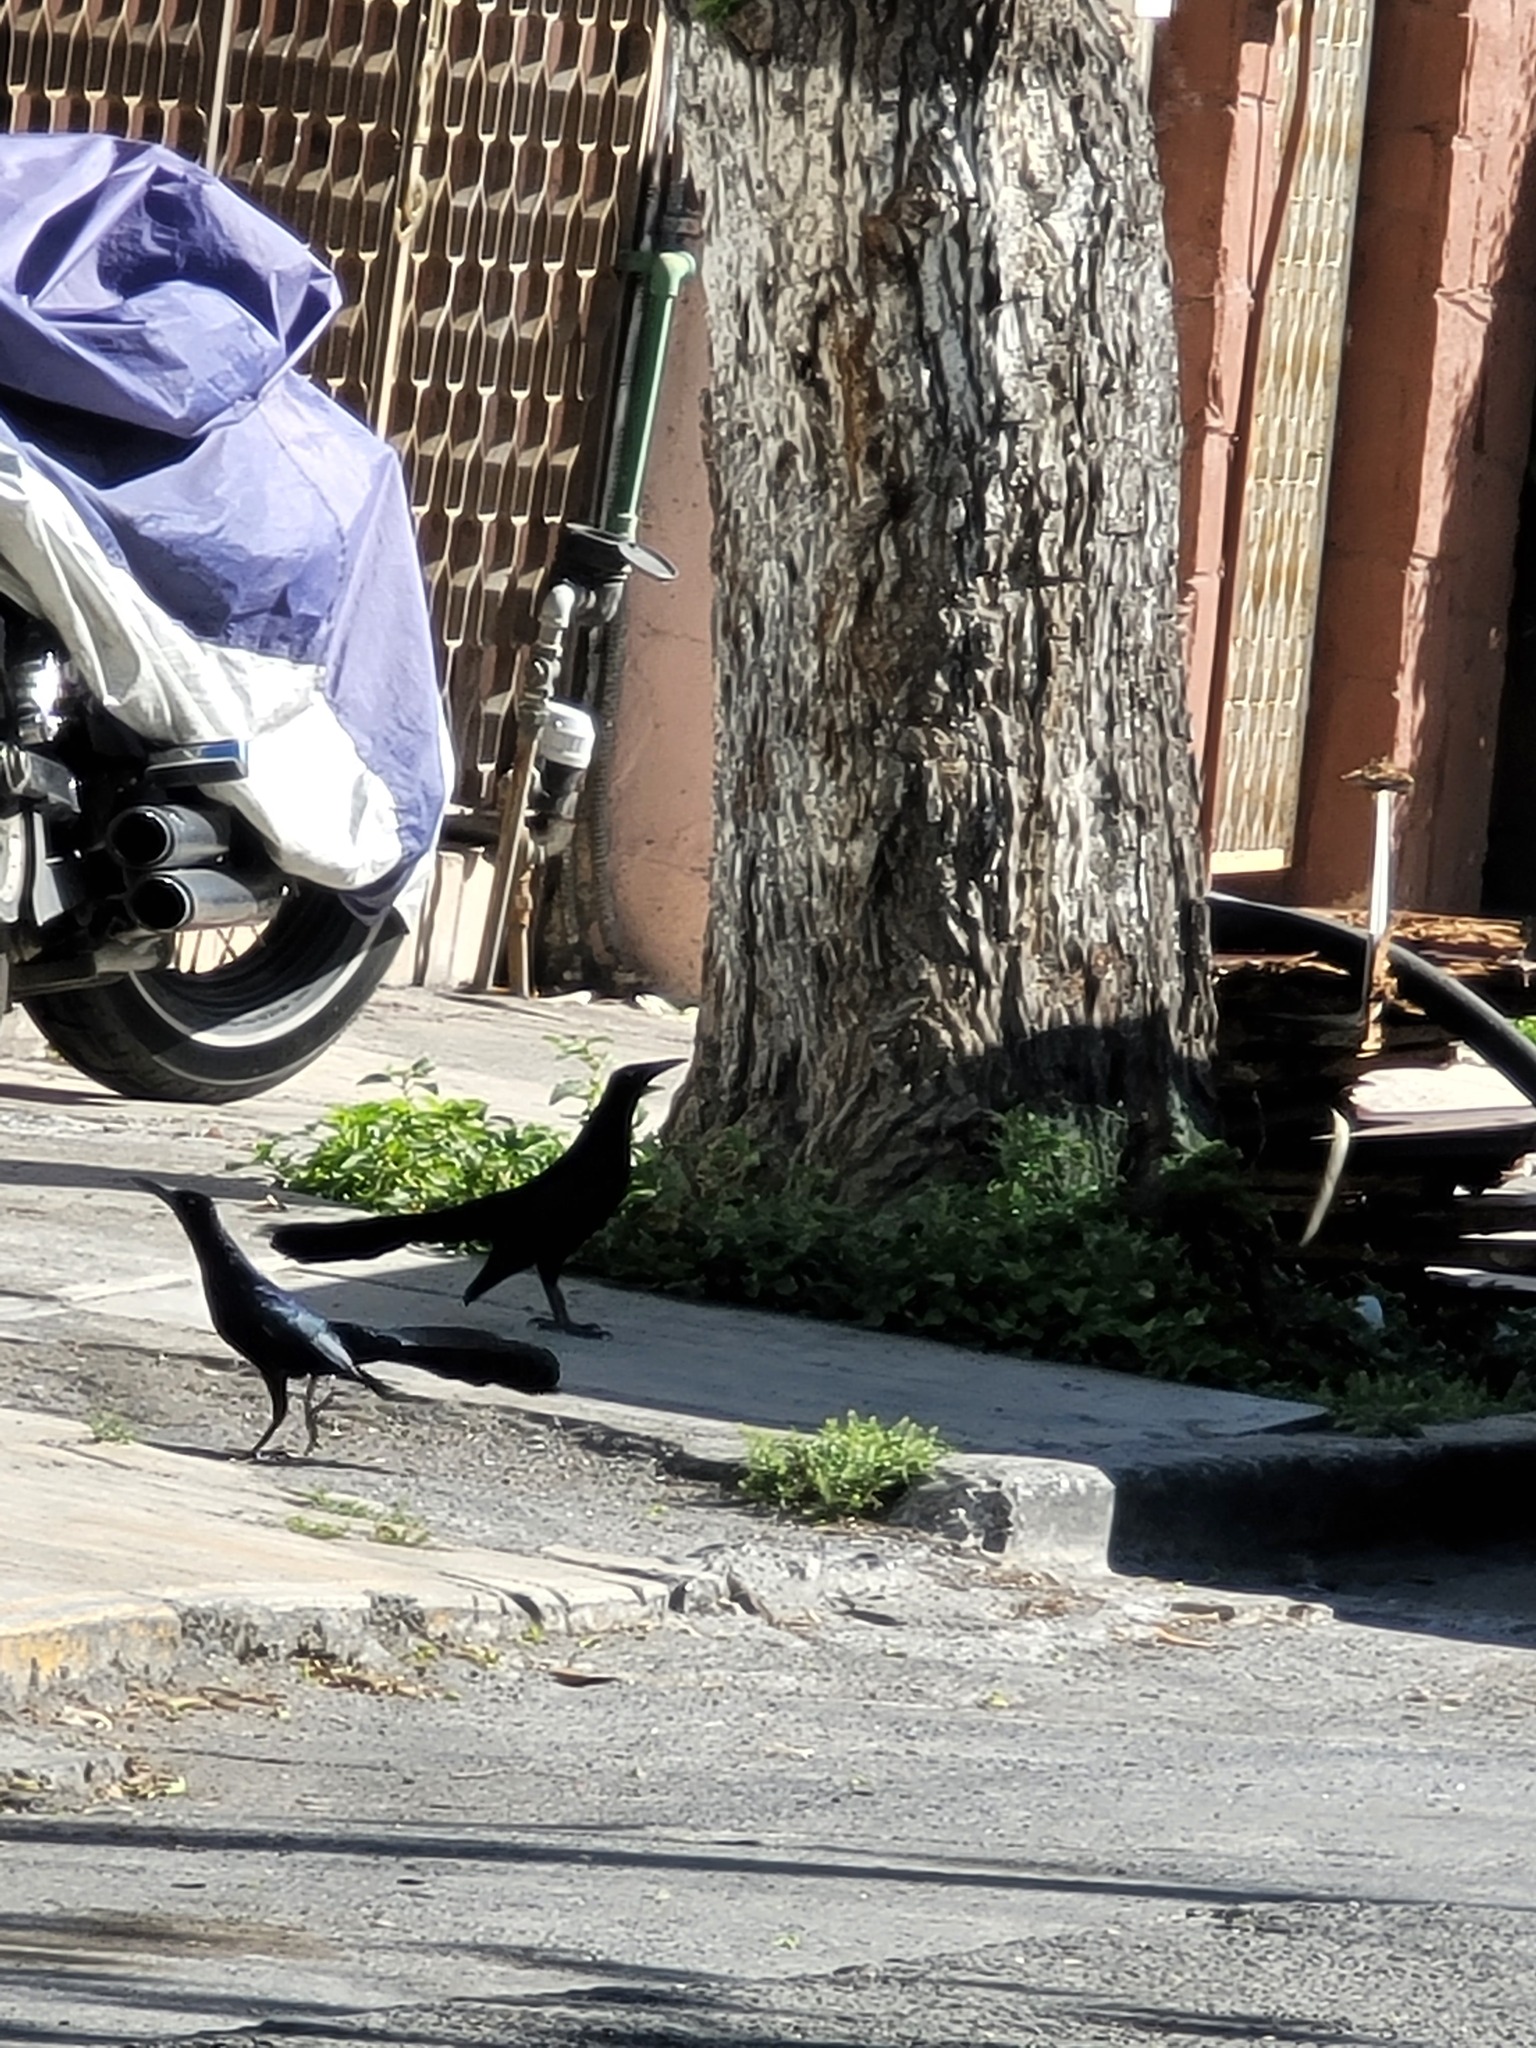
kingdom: Animalia
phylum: Chordata
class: Aves
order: Passeriformes
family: Icteridae
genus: Quiscalus
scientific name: Quiscalus mexicanus
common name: Great-tailed grackle
